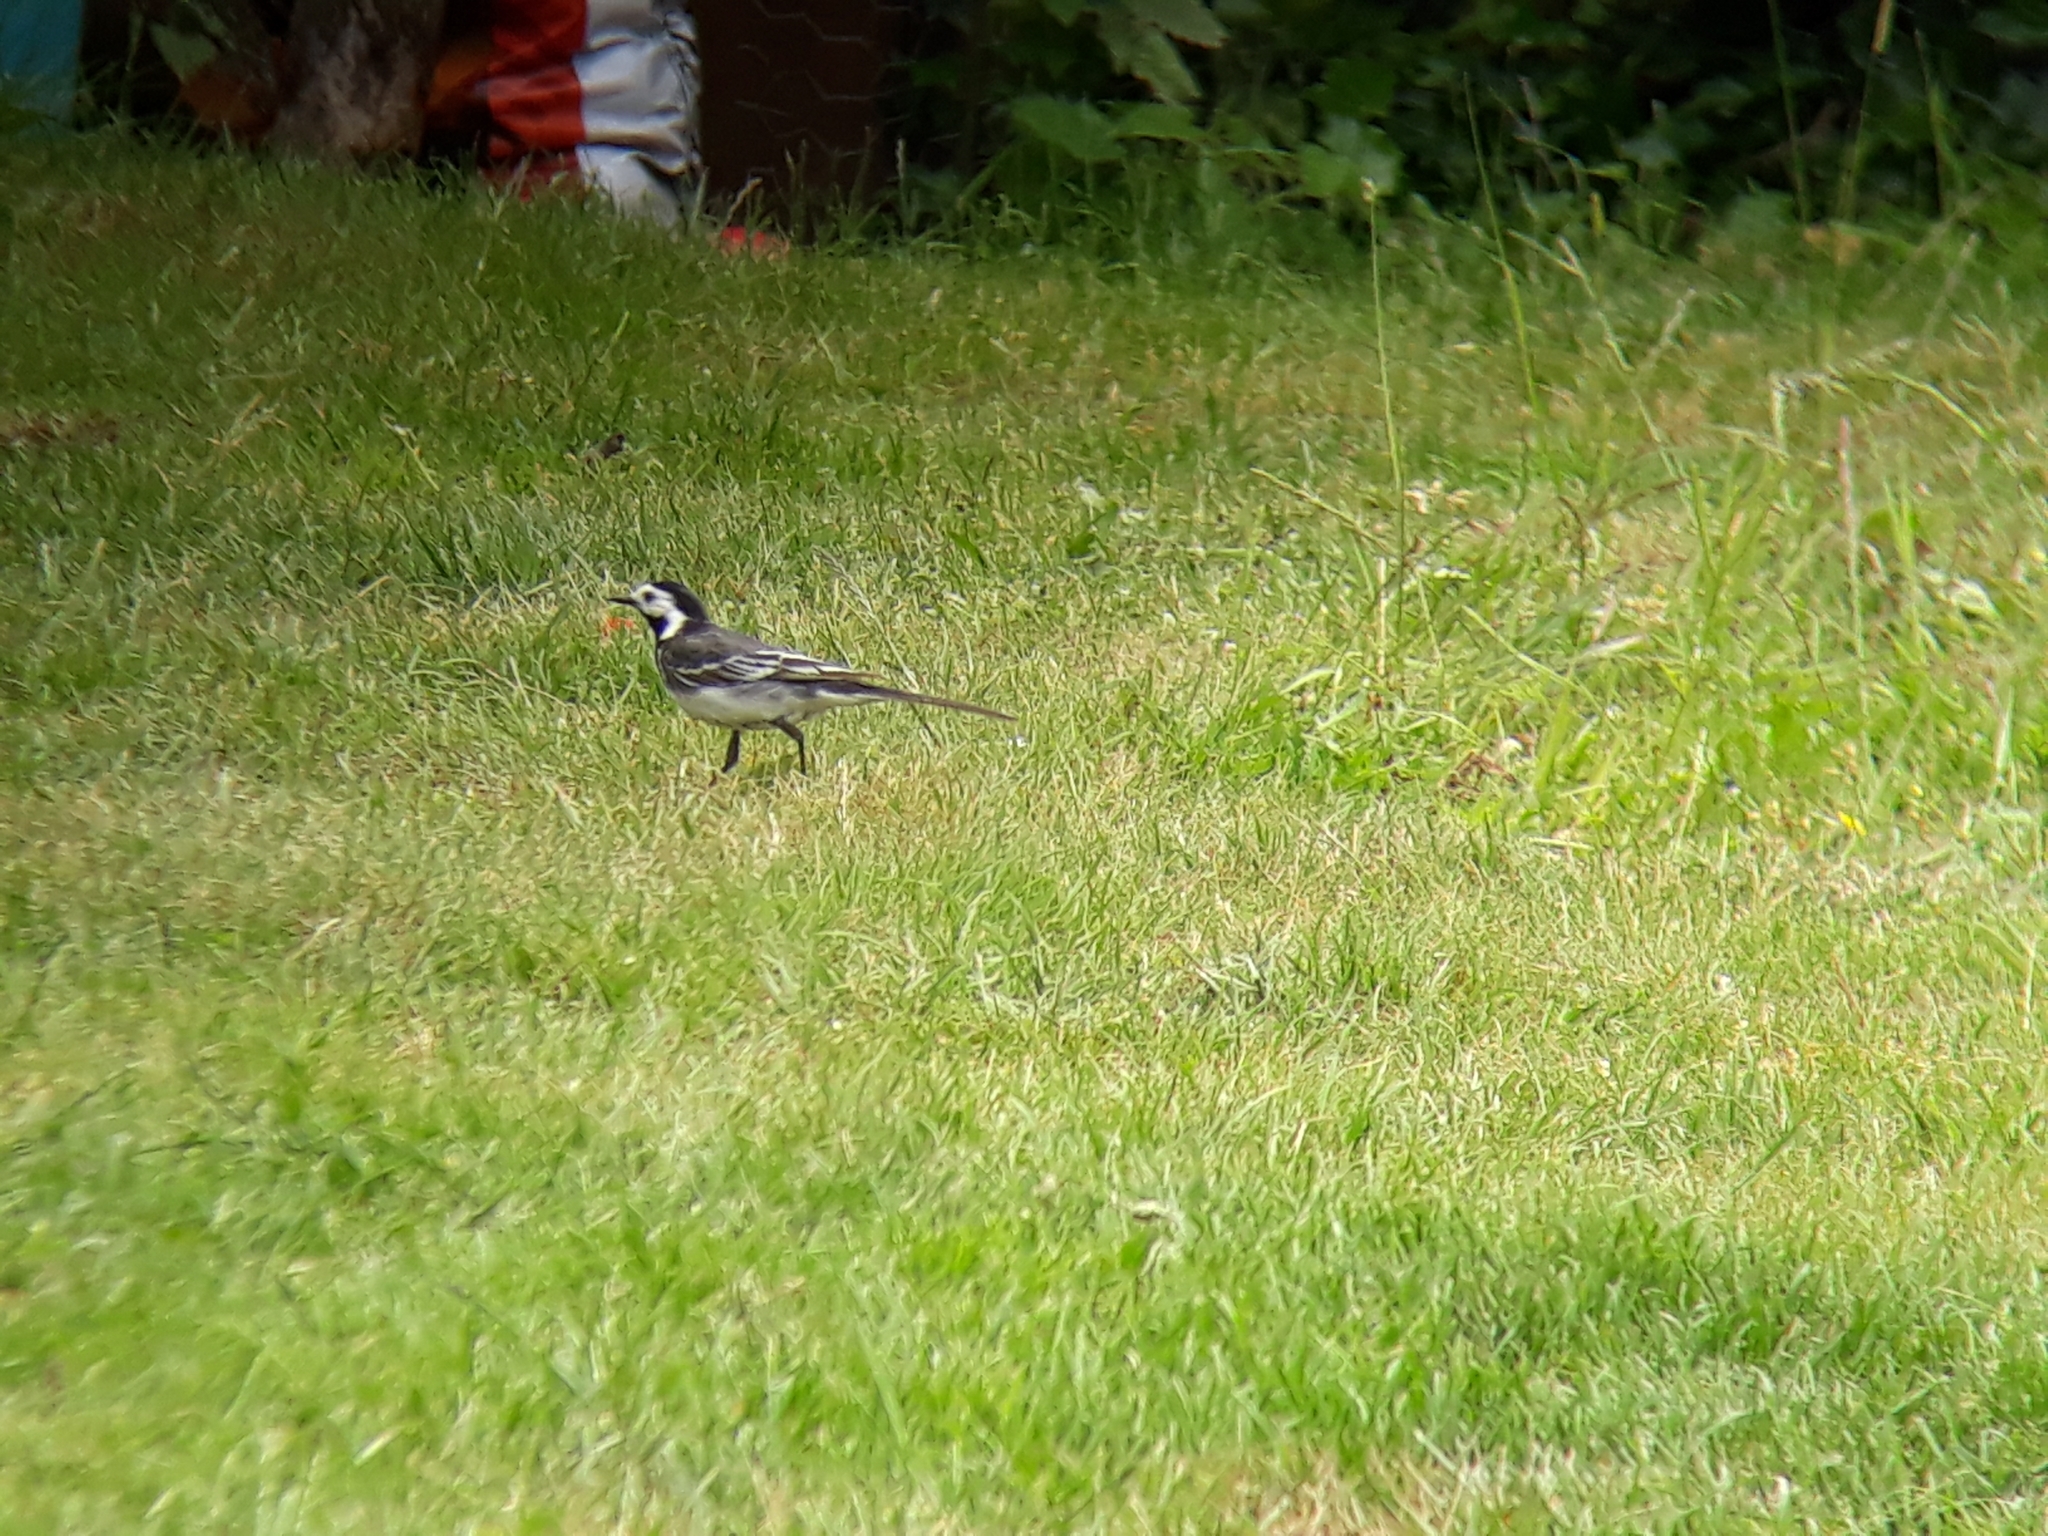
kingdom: Animalia
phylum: Chordata
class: Aves
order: Passeriformes
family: Motacillidae
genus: Motacilla
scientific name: Motacilla alba
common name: White wagtail
